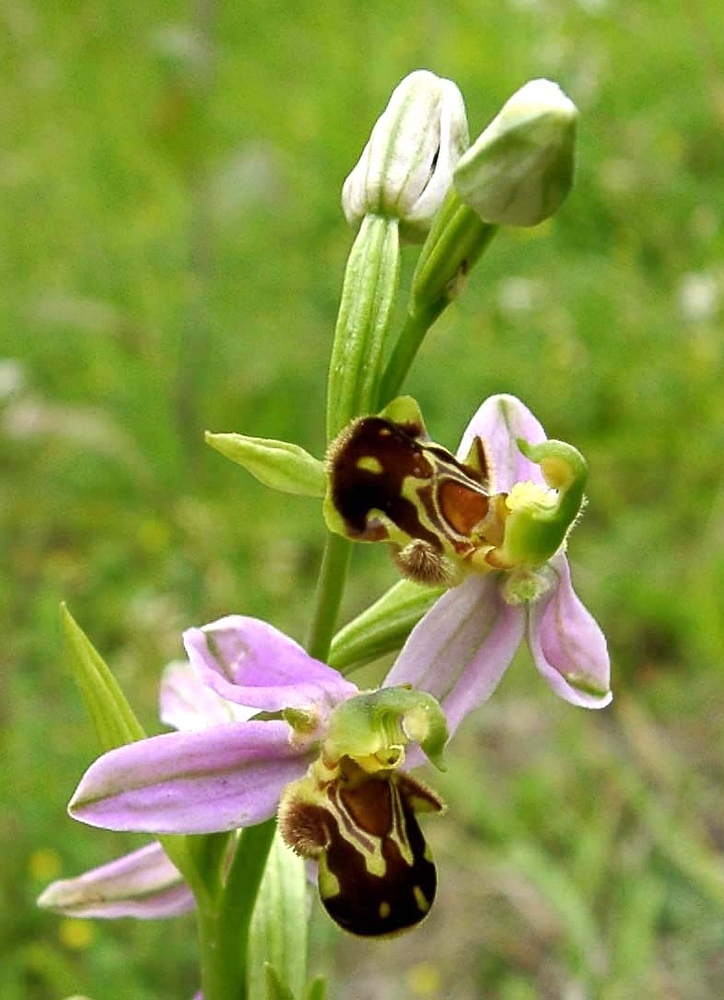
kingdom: Plantae
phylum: Tracheophyta
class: Liliopsida
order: Asparagales
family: Orchidaceae
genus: Ophrys
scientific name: Ophrys apifera
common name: Bee orchid
